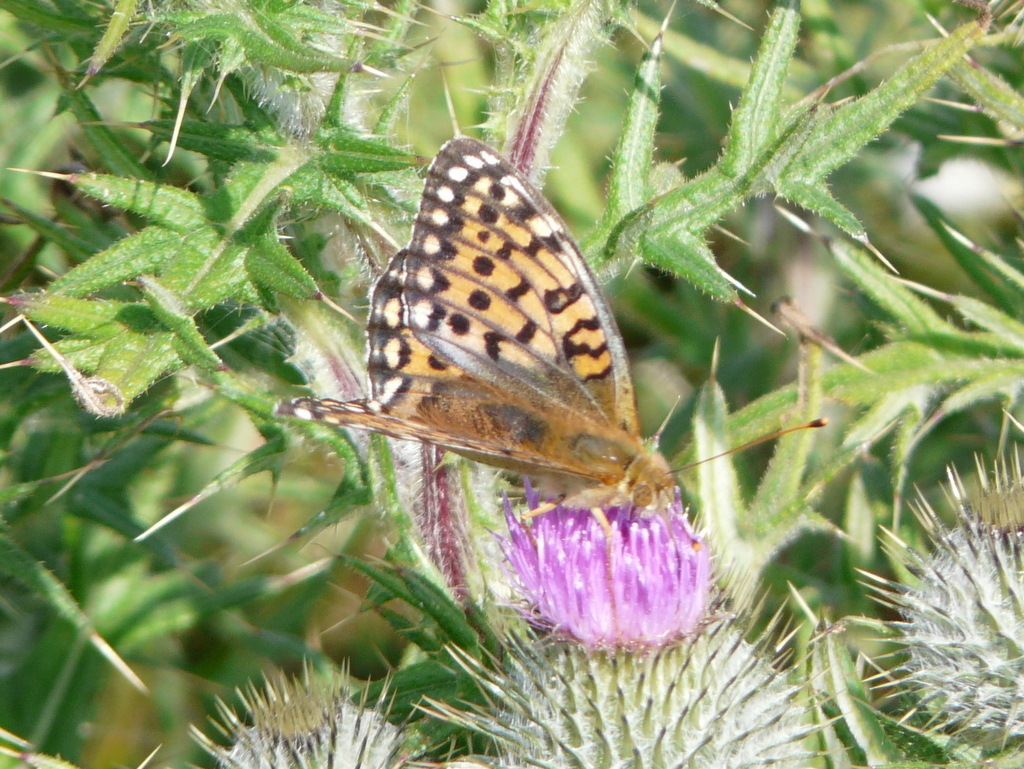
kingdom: Animalia
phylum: Arthropoda
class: Insecta
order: Lepidoptera
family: Nymphalidae
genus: Speyeria
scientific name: Speyeria aglaja
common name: Dark green fritillary
